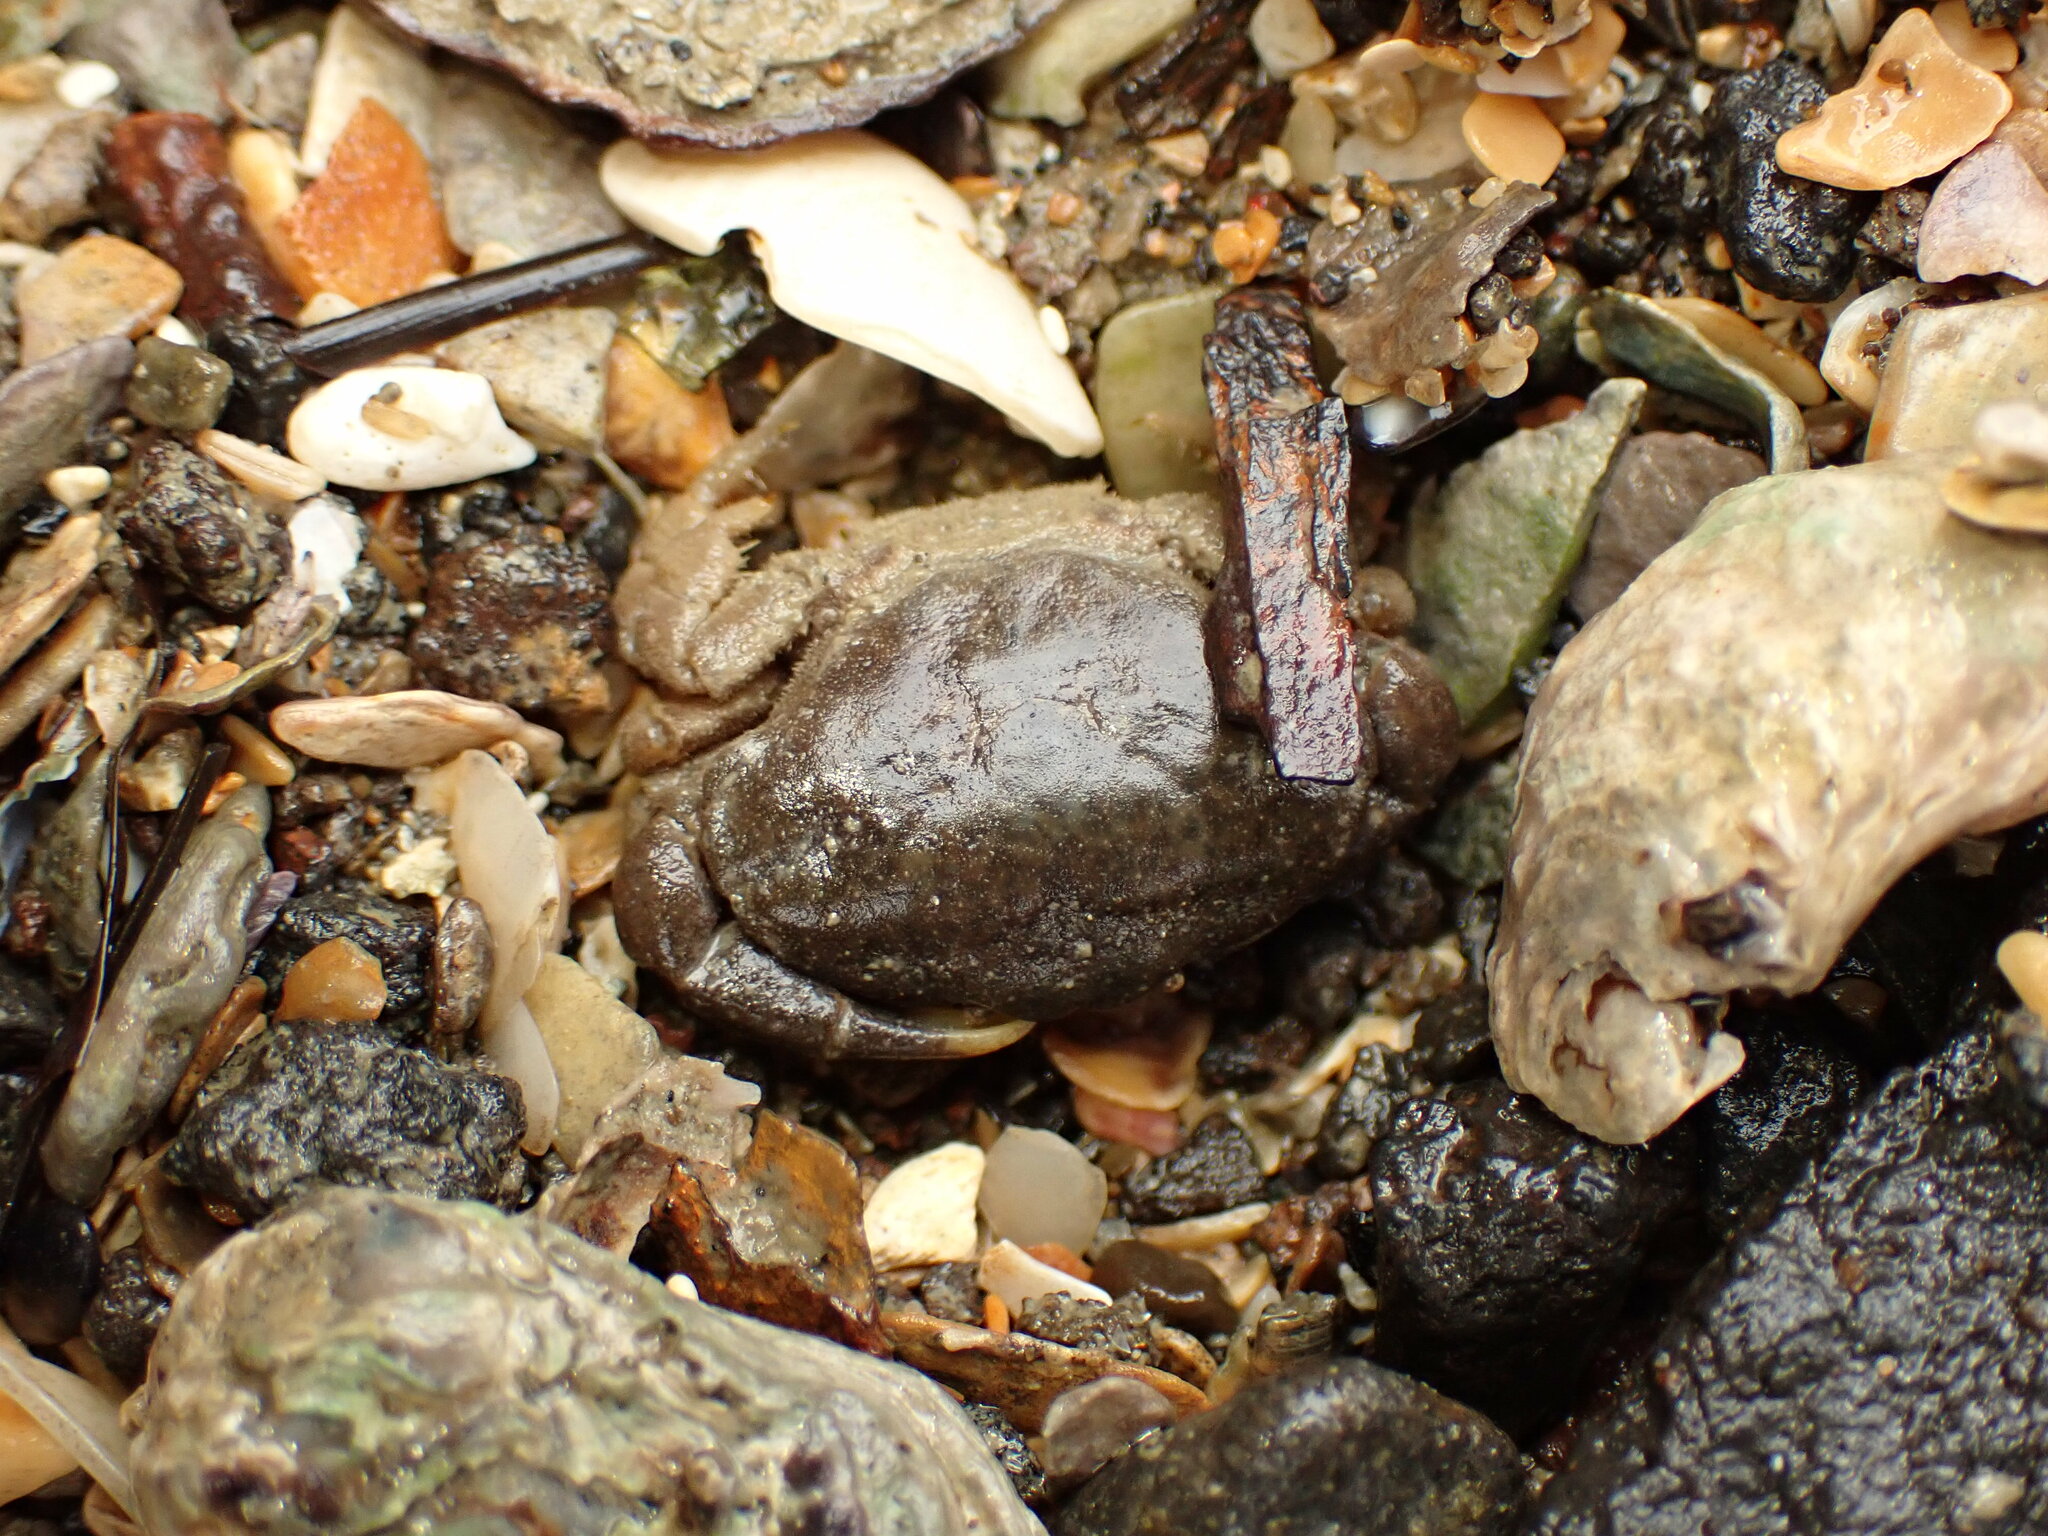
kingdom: Animalia
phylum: Arthropoda
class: Malacostraca
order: Decapoda
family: Heteroziidae
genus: Heterozius
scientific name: Heterozius rotundifrons
